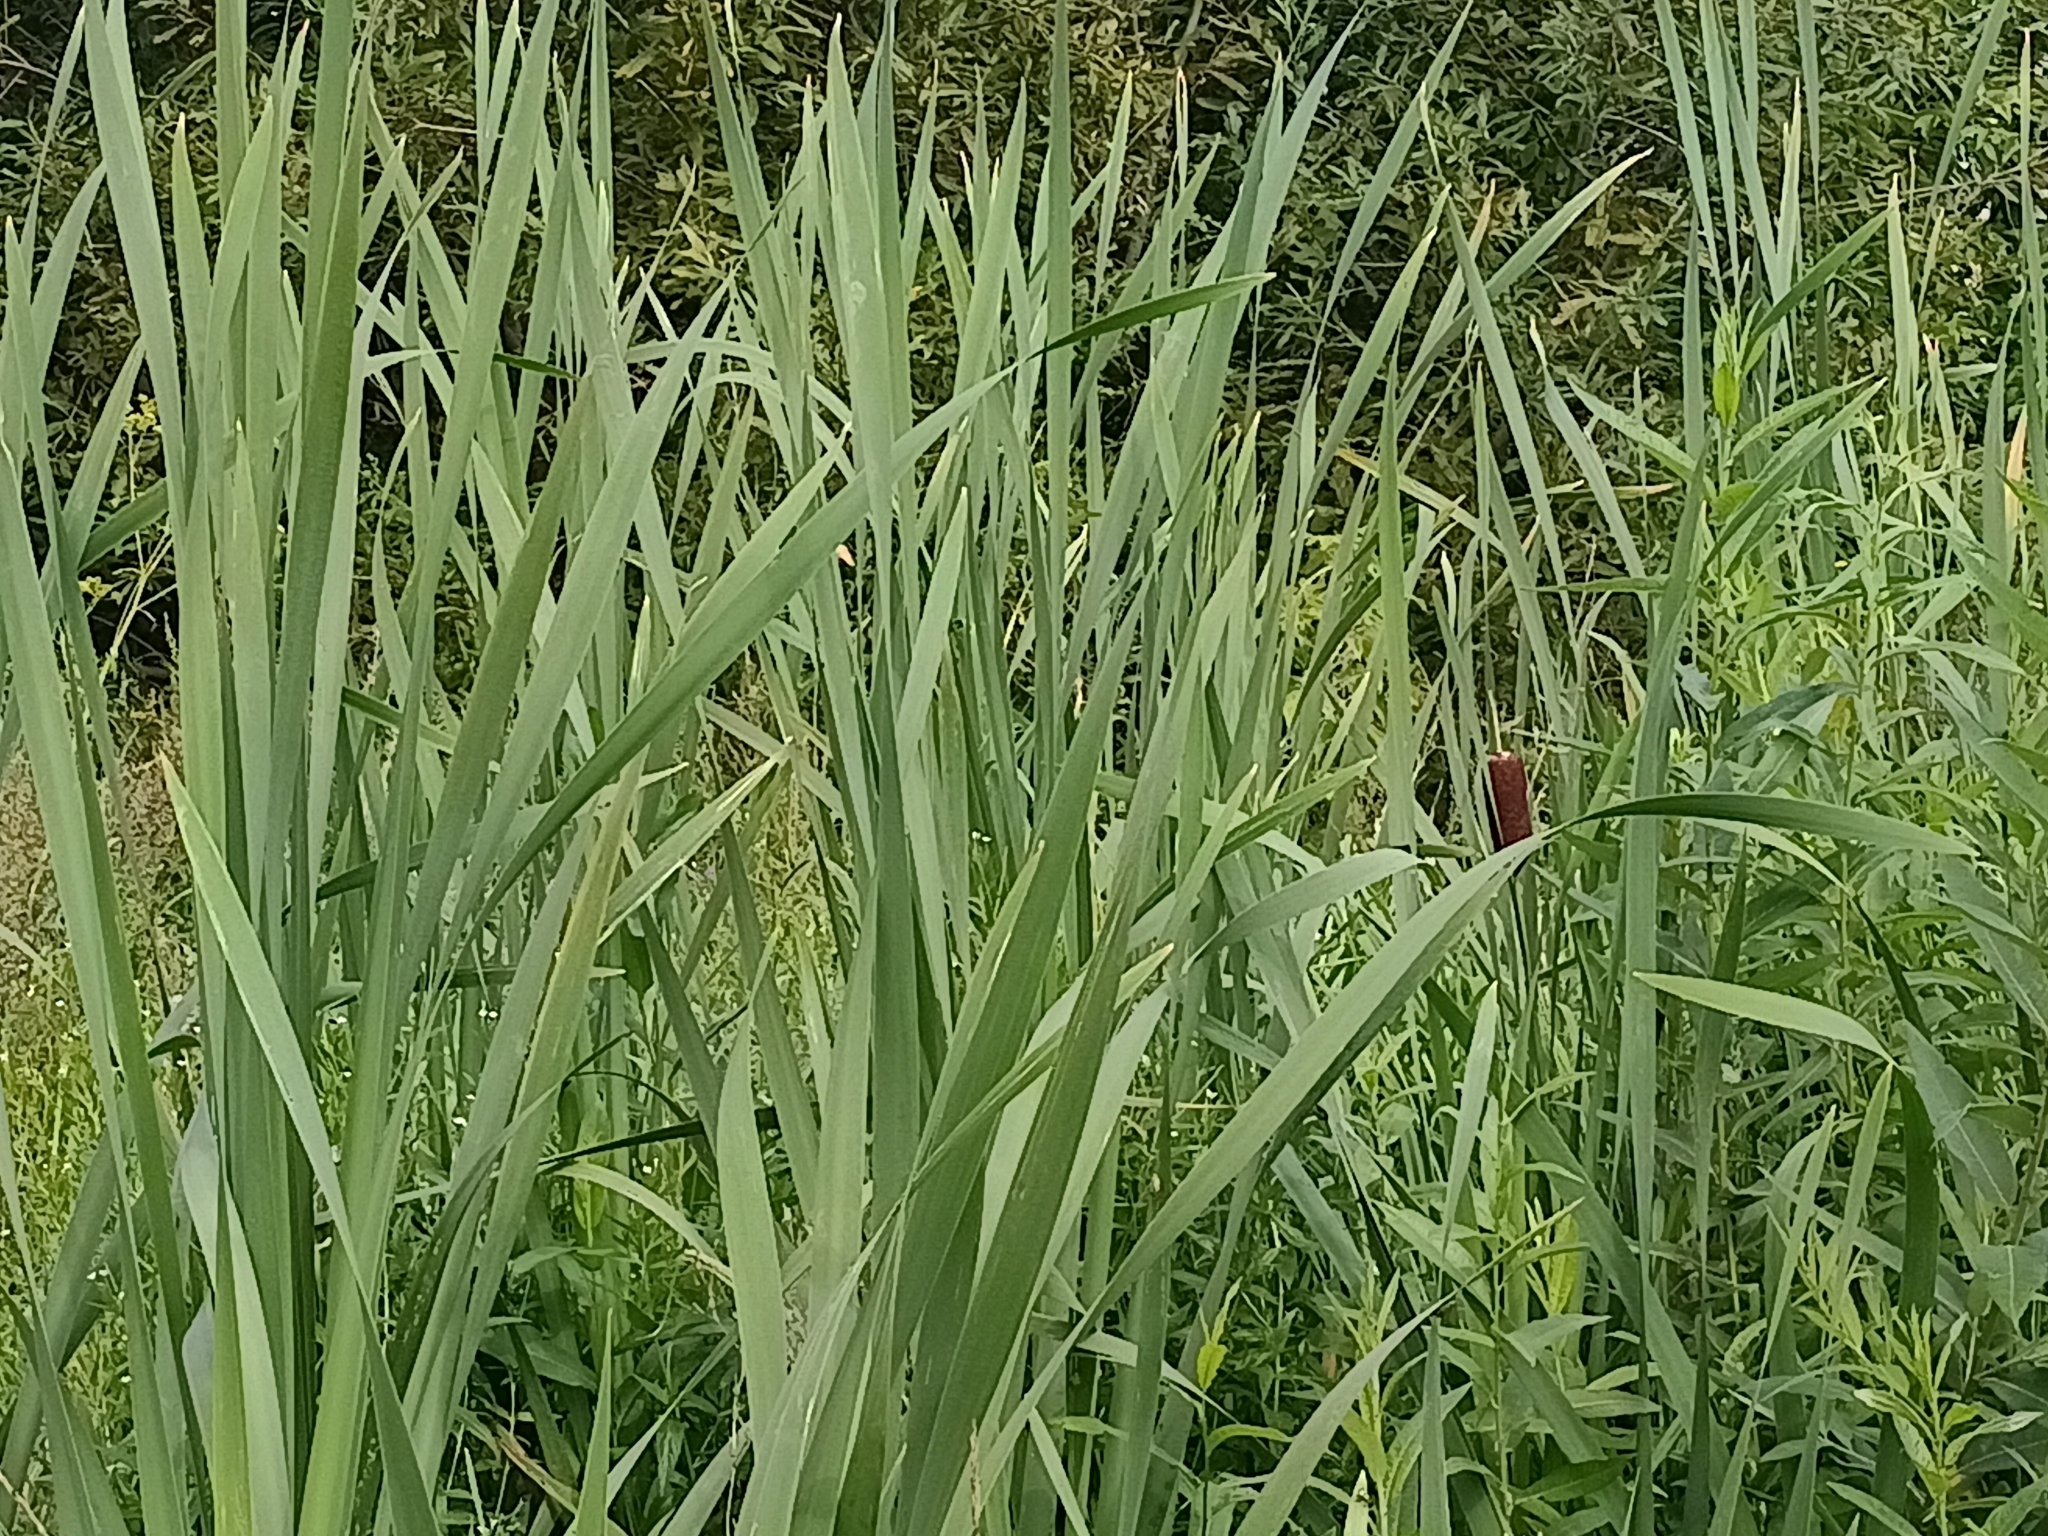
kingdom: Plantae
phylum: Tracheophyta
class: Liliopsida
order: Poales
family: Typhaceae
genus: Typha
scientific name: Typha latifolia
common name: Broadleaf cattail
